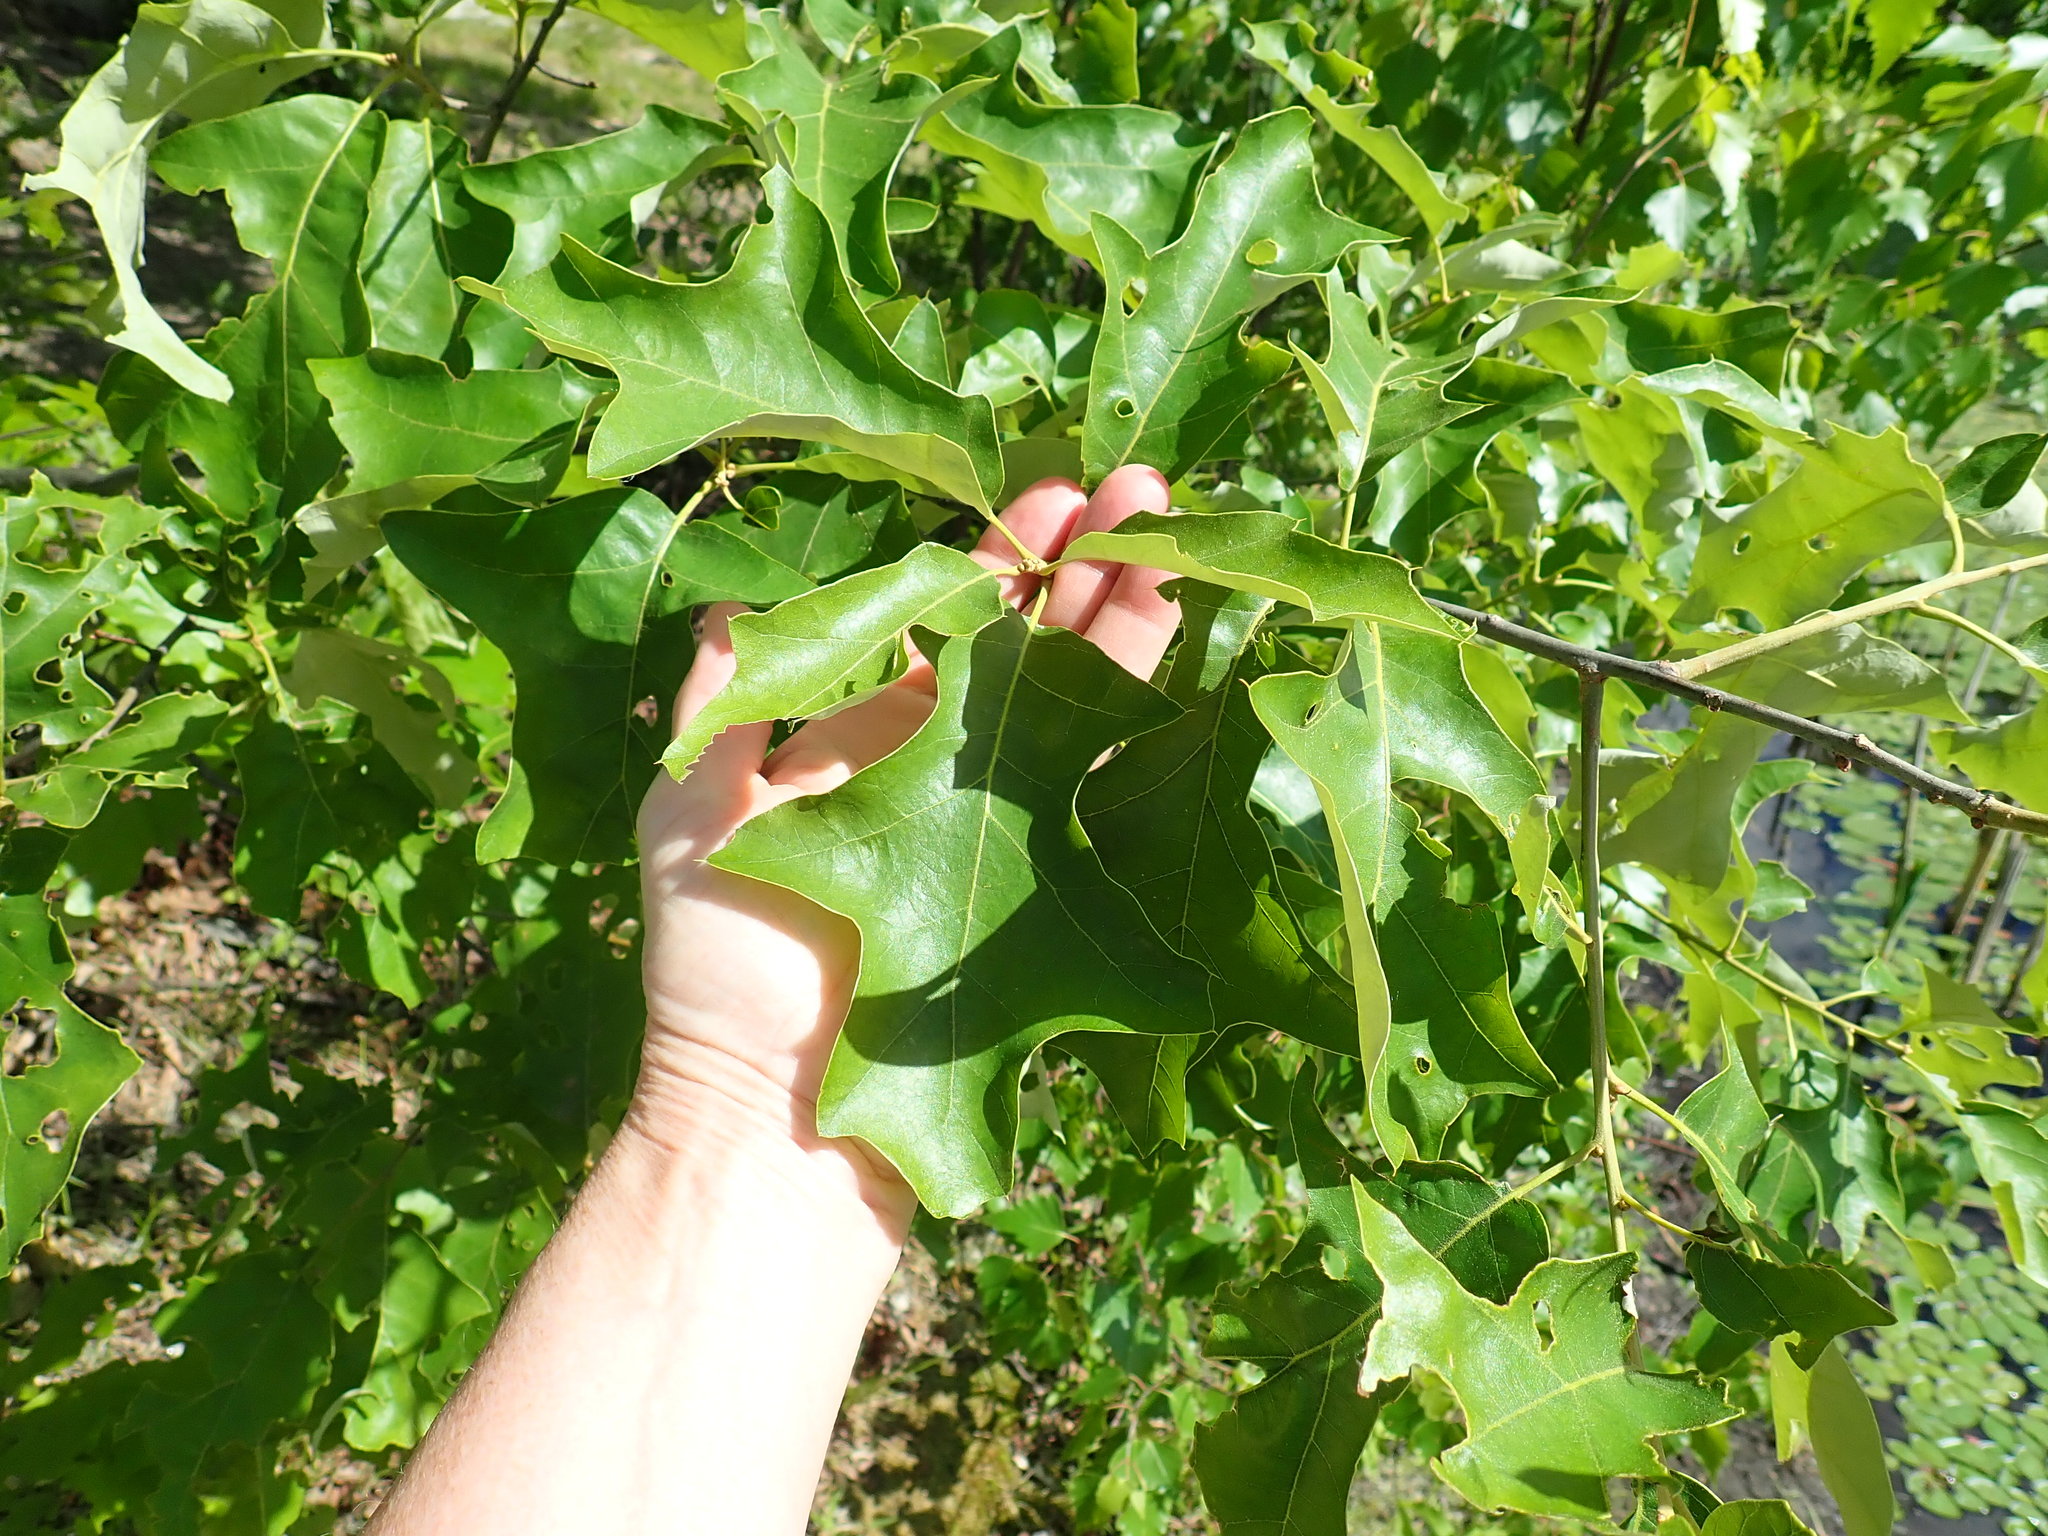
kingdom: Plantae
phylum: Tracheophyta
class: Magnoliopsida
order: Fagales
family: Fagaceae
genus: Quercus
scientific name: Quercus ilicifolia
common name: Bear oak
